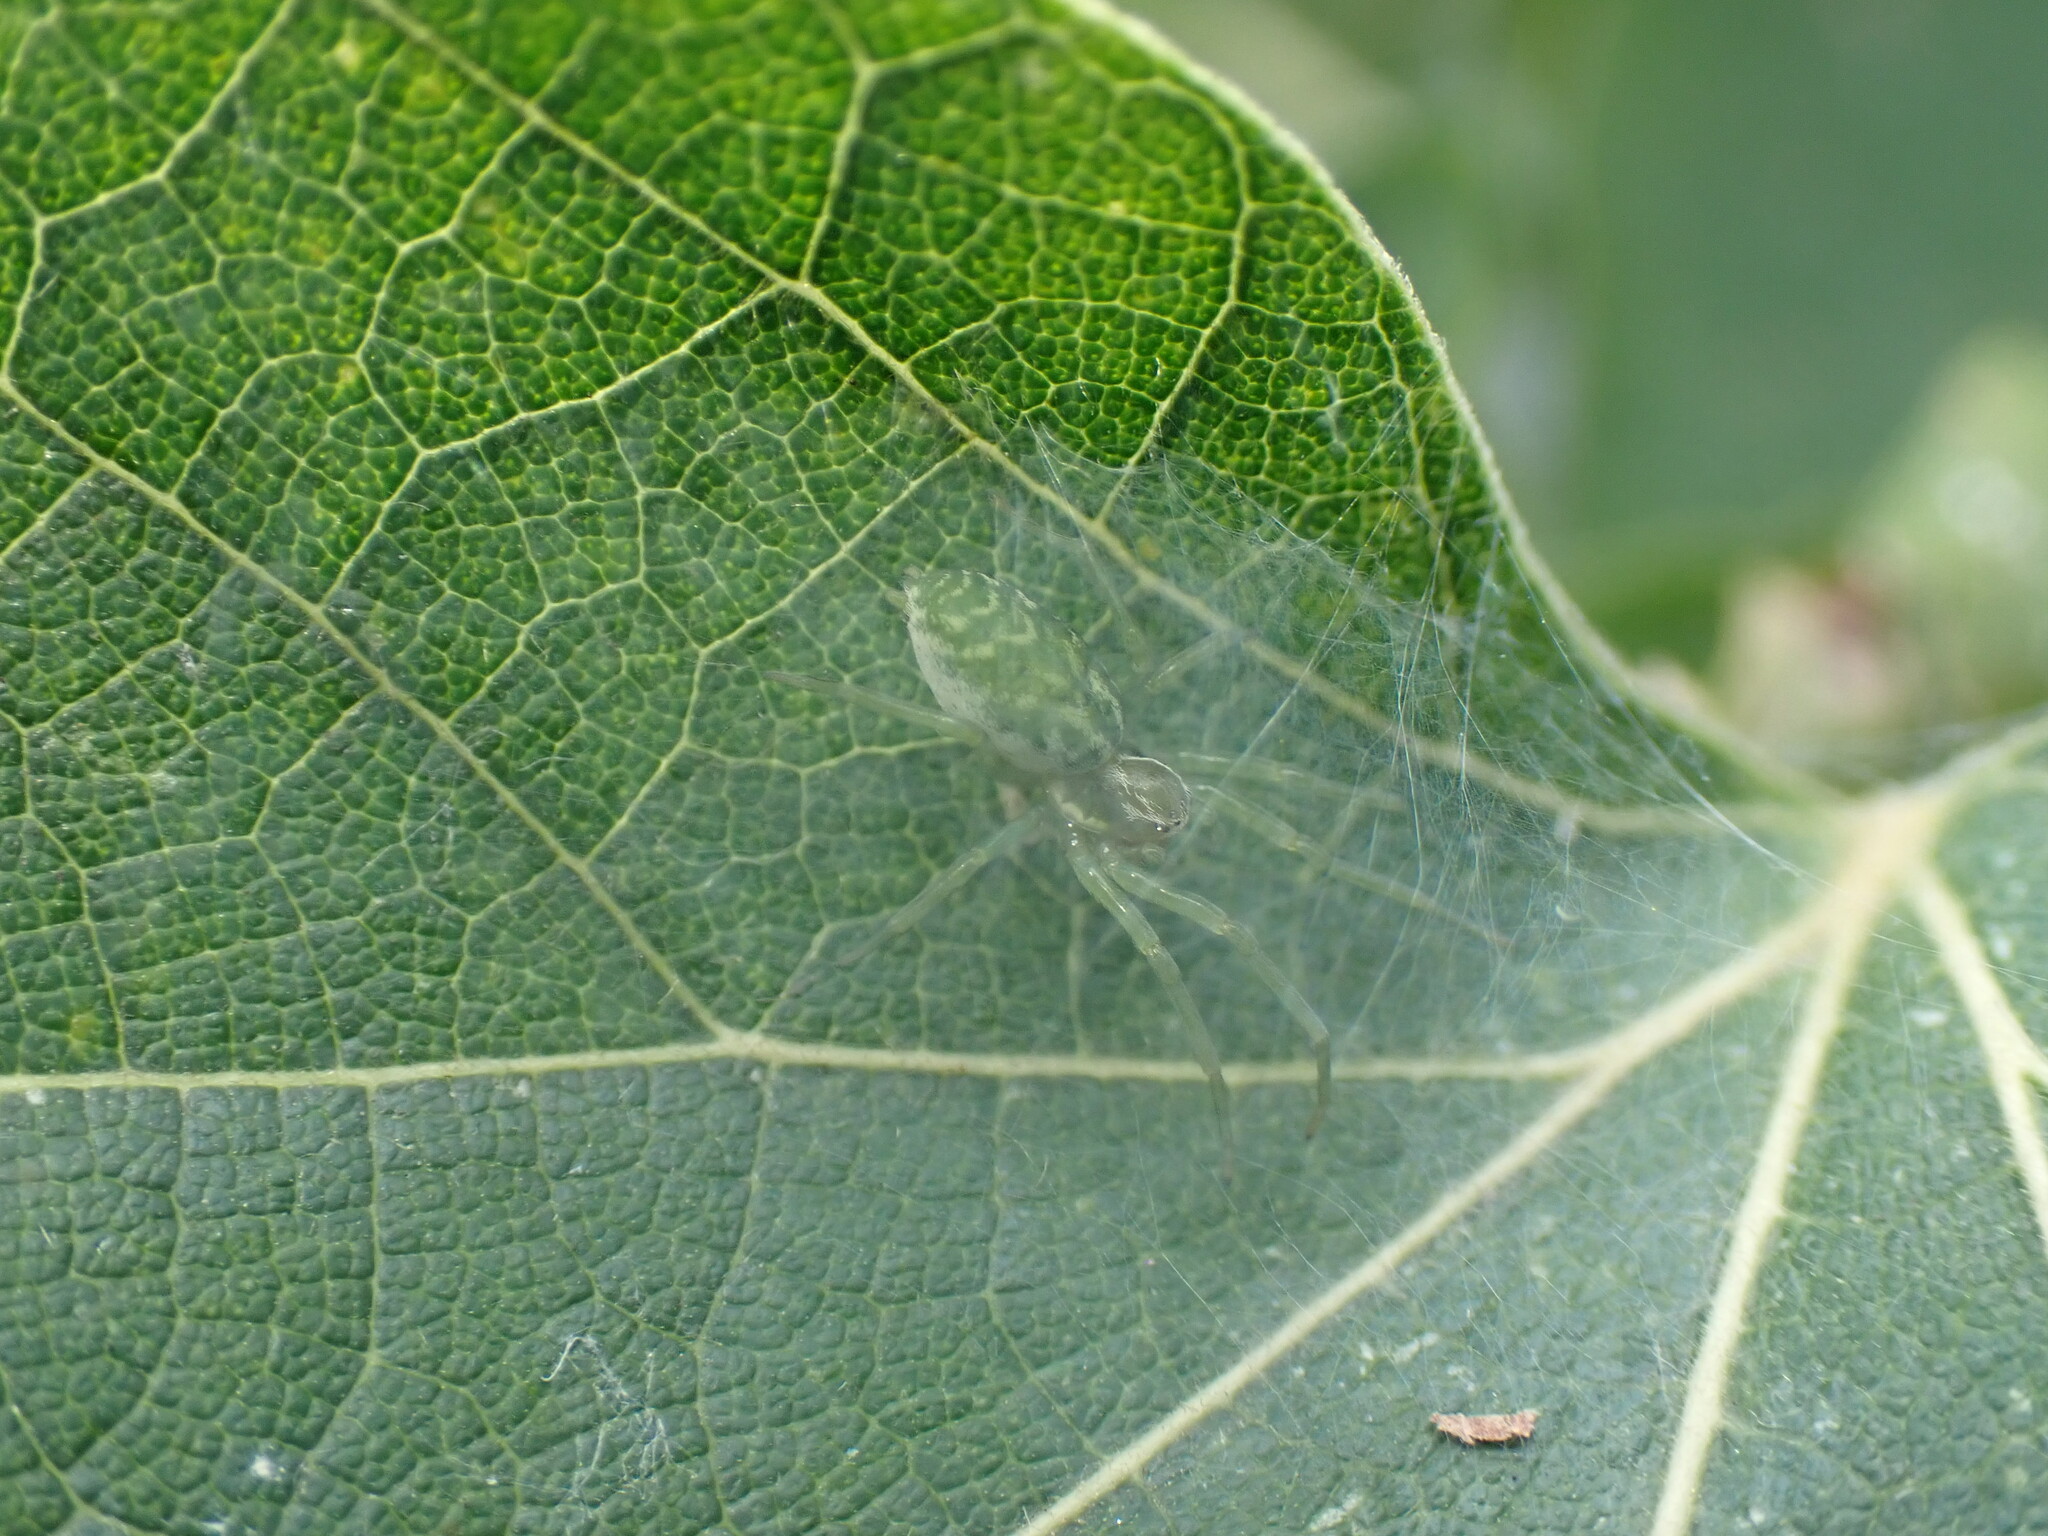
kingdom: Animalia
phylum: Arthropoda
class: Arachnida
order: Araneae
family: Dictynidae
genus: Nigma
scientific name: Nigma walckenaeri
